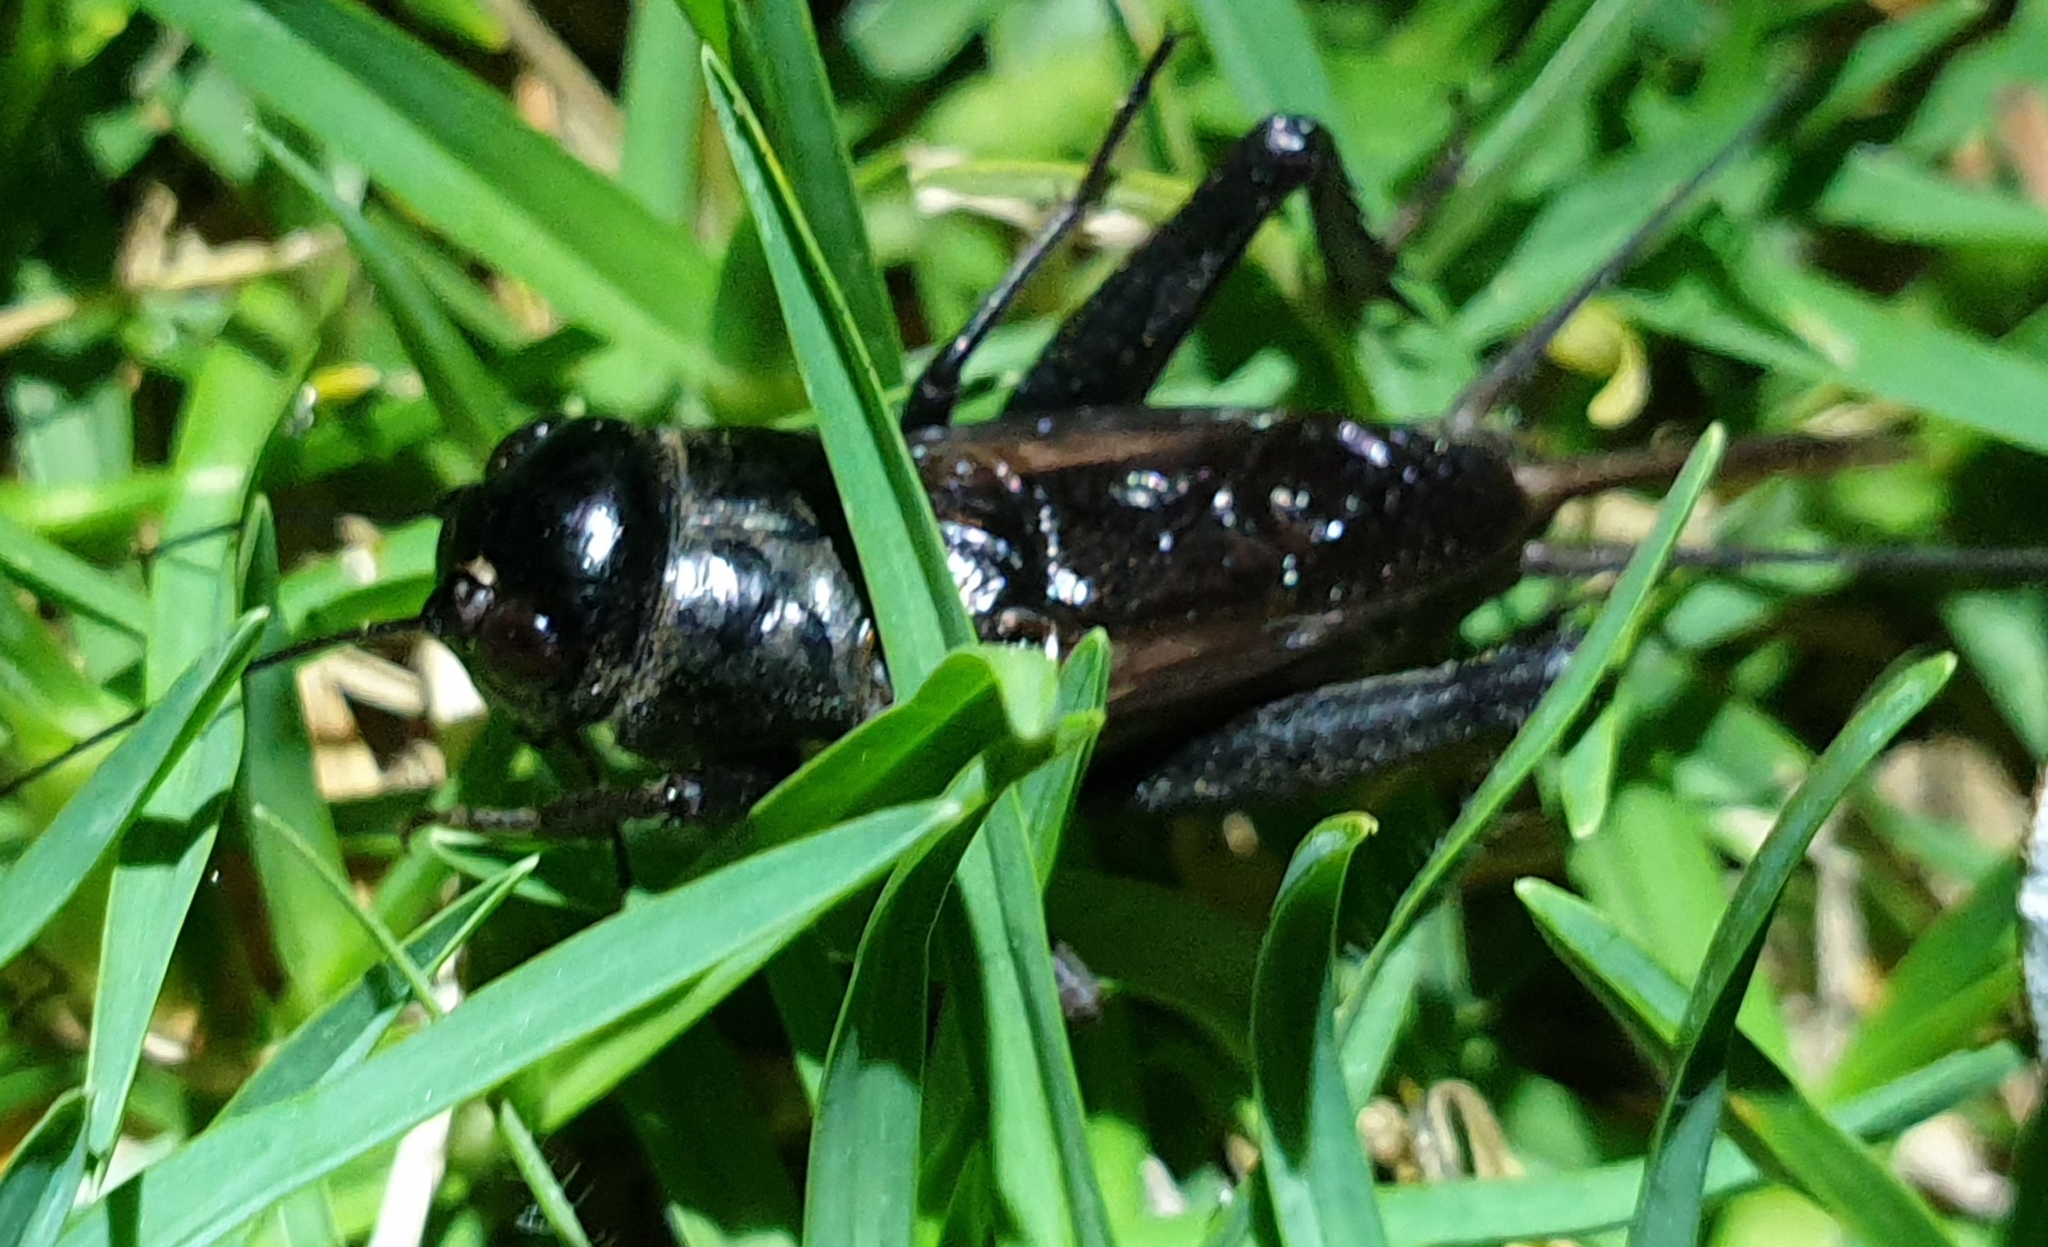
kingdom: Animalia
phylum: Arthropoda
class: Insecta
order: Orthoptera
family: Gryllidae
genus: Teleogryllus
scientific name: Teleogryllus commodus
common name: Black field cricket
